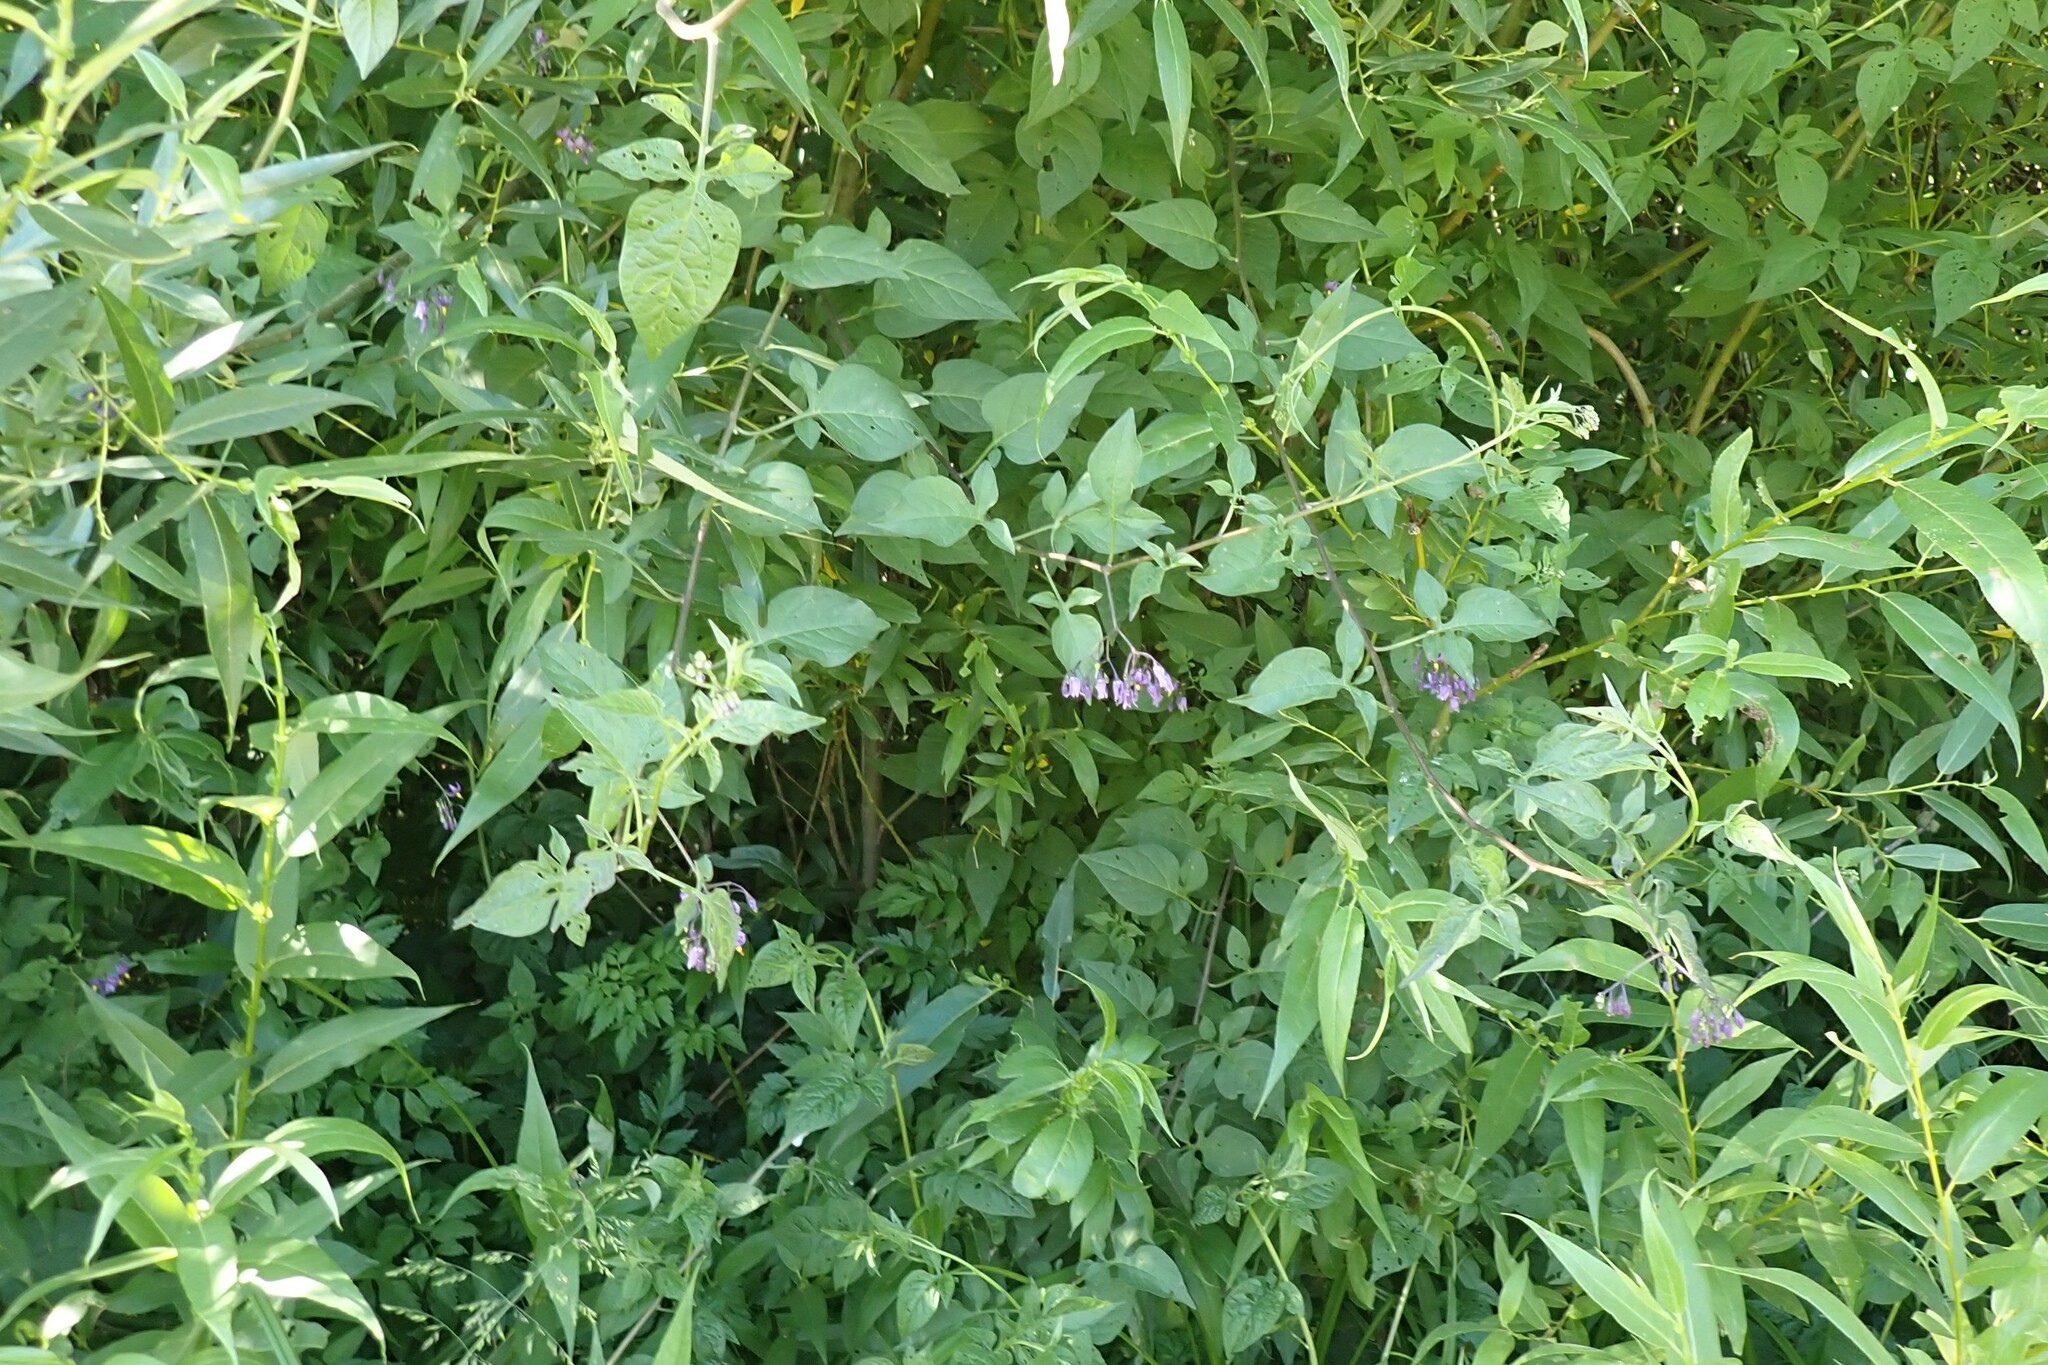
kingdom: Plantae
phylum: Tracheophyta
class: Magnoliopsida
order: Solanales
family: Solanaceae
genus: Solanum
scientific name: Solanum dulcamara
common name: Climbing nightshade
